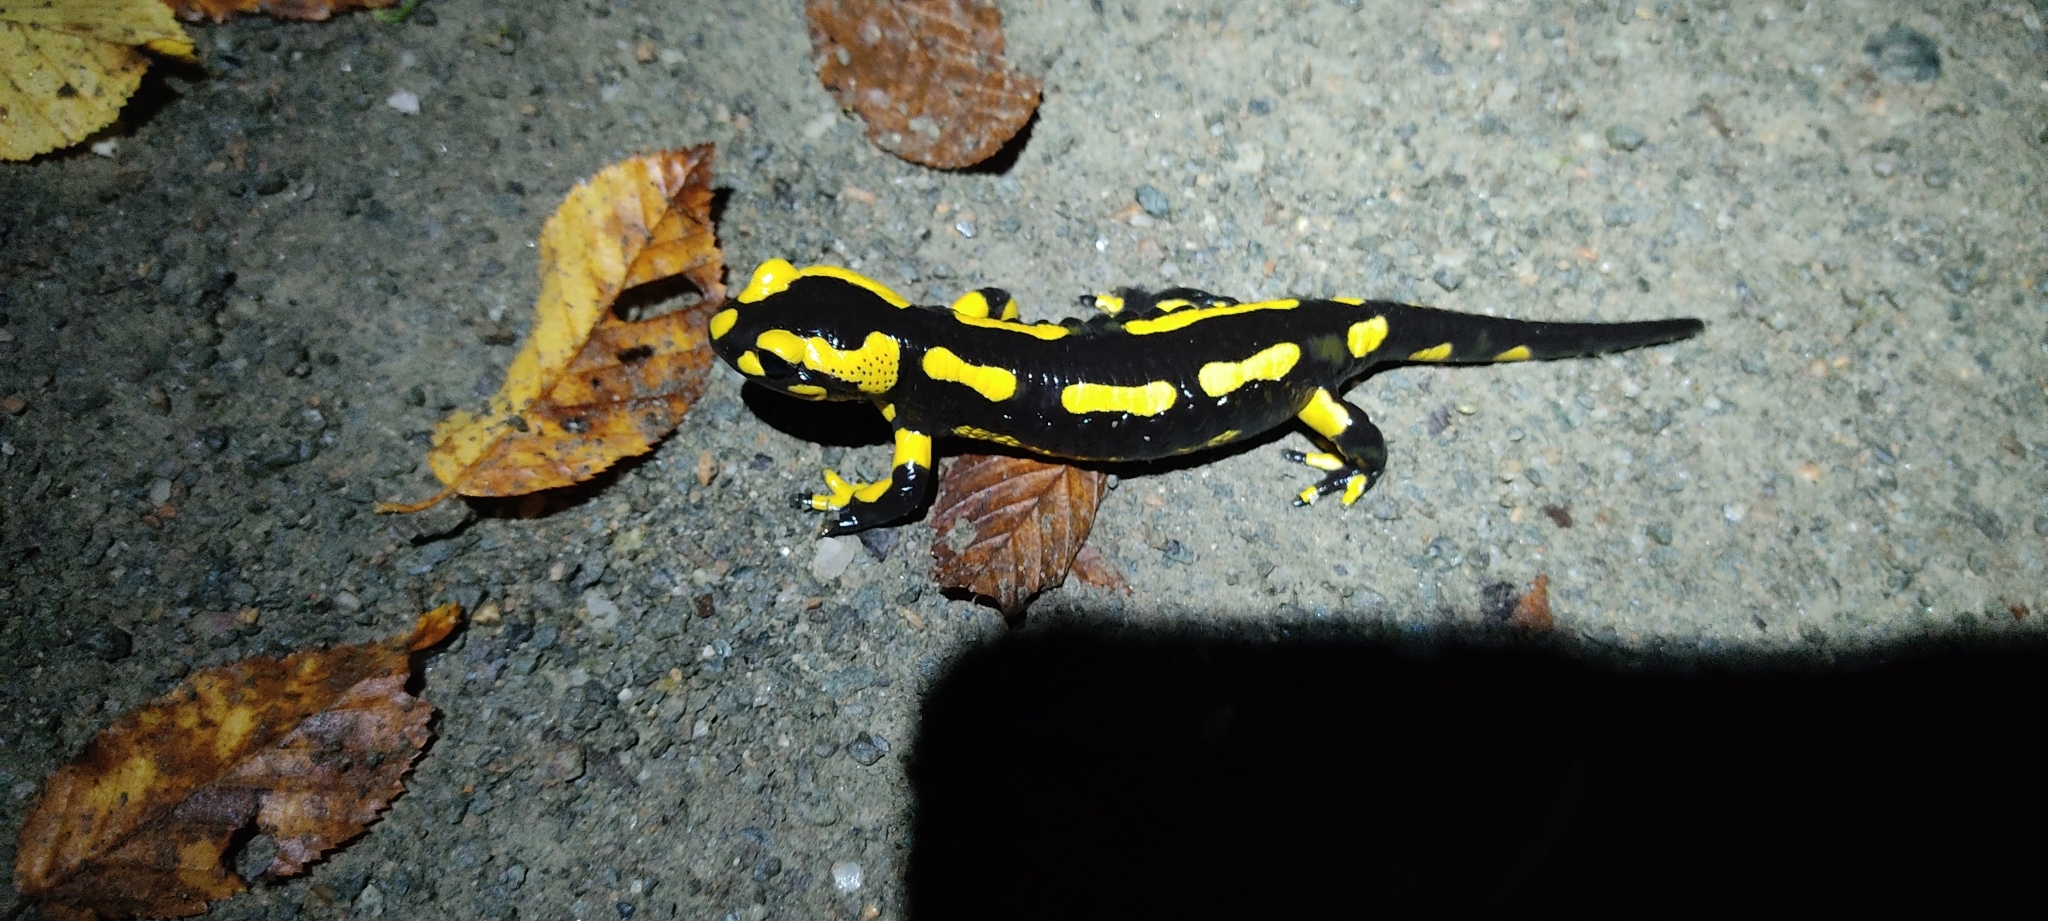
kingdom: Animalia
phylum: Chordata
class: Amphibia
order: Caudata
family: Salamandridae
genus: Salamandra
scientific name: Salamandra salamandra
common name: Fire salamander
